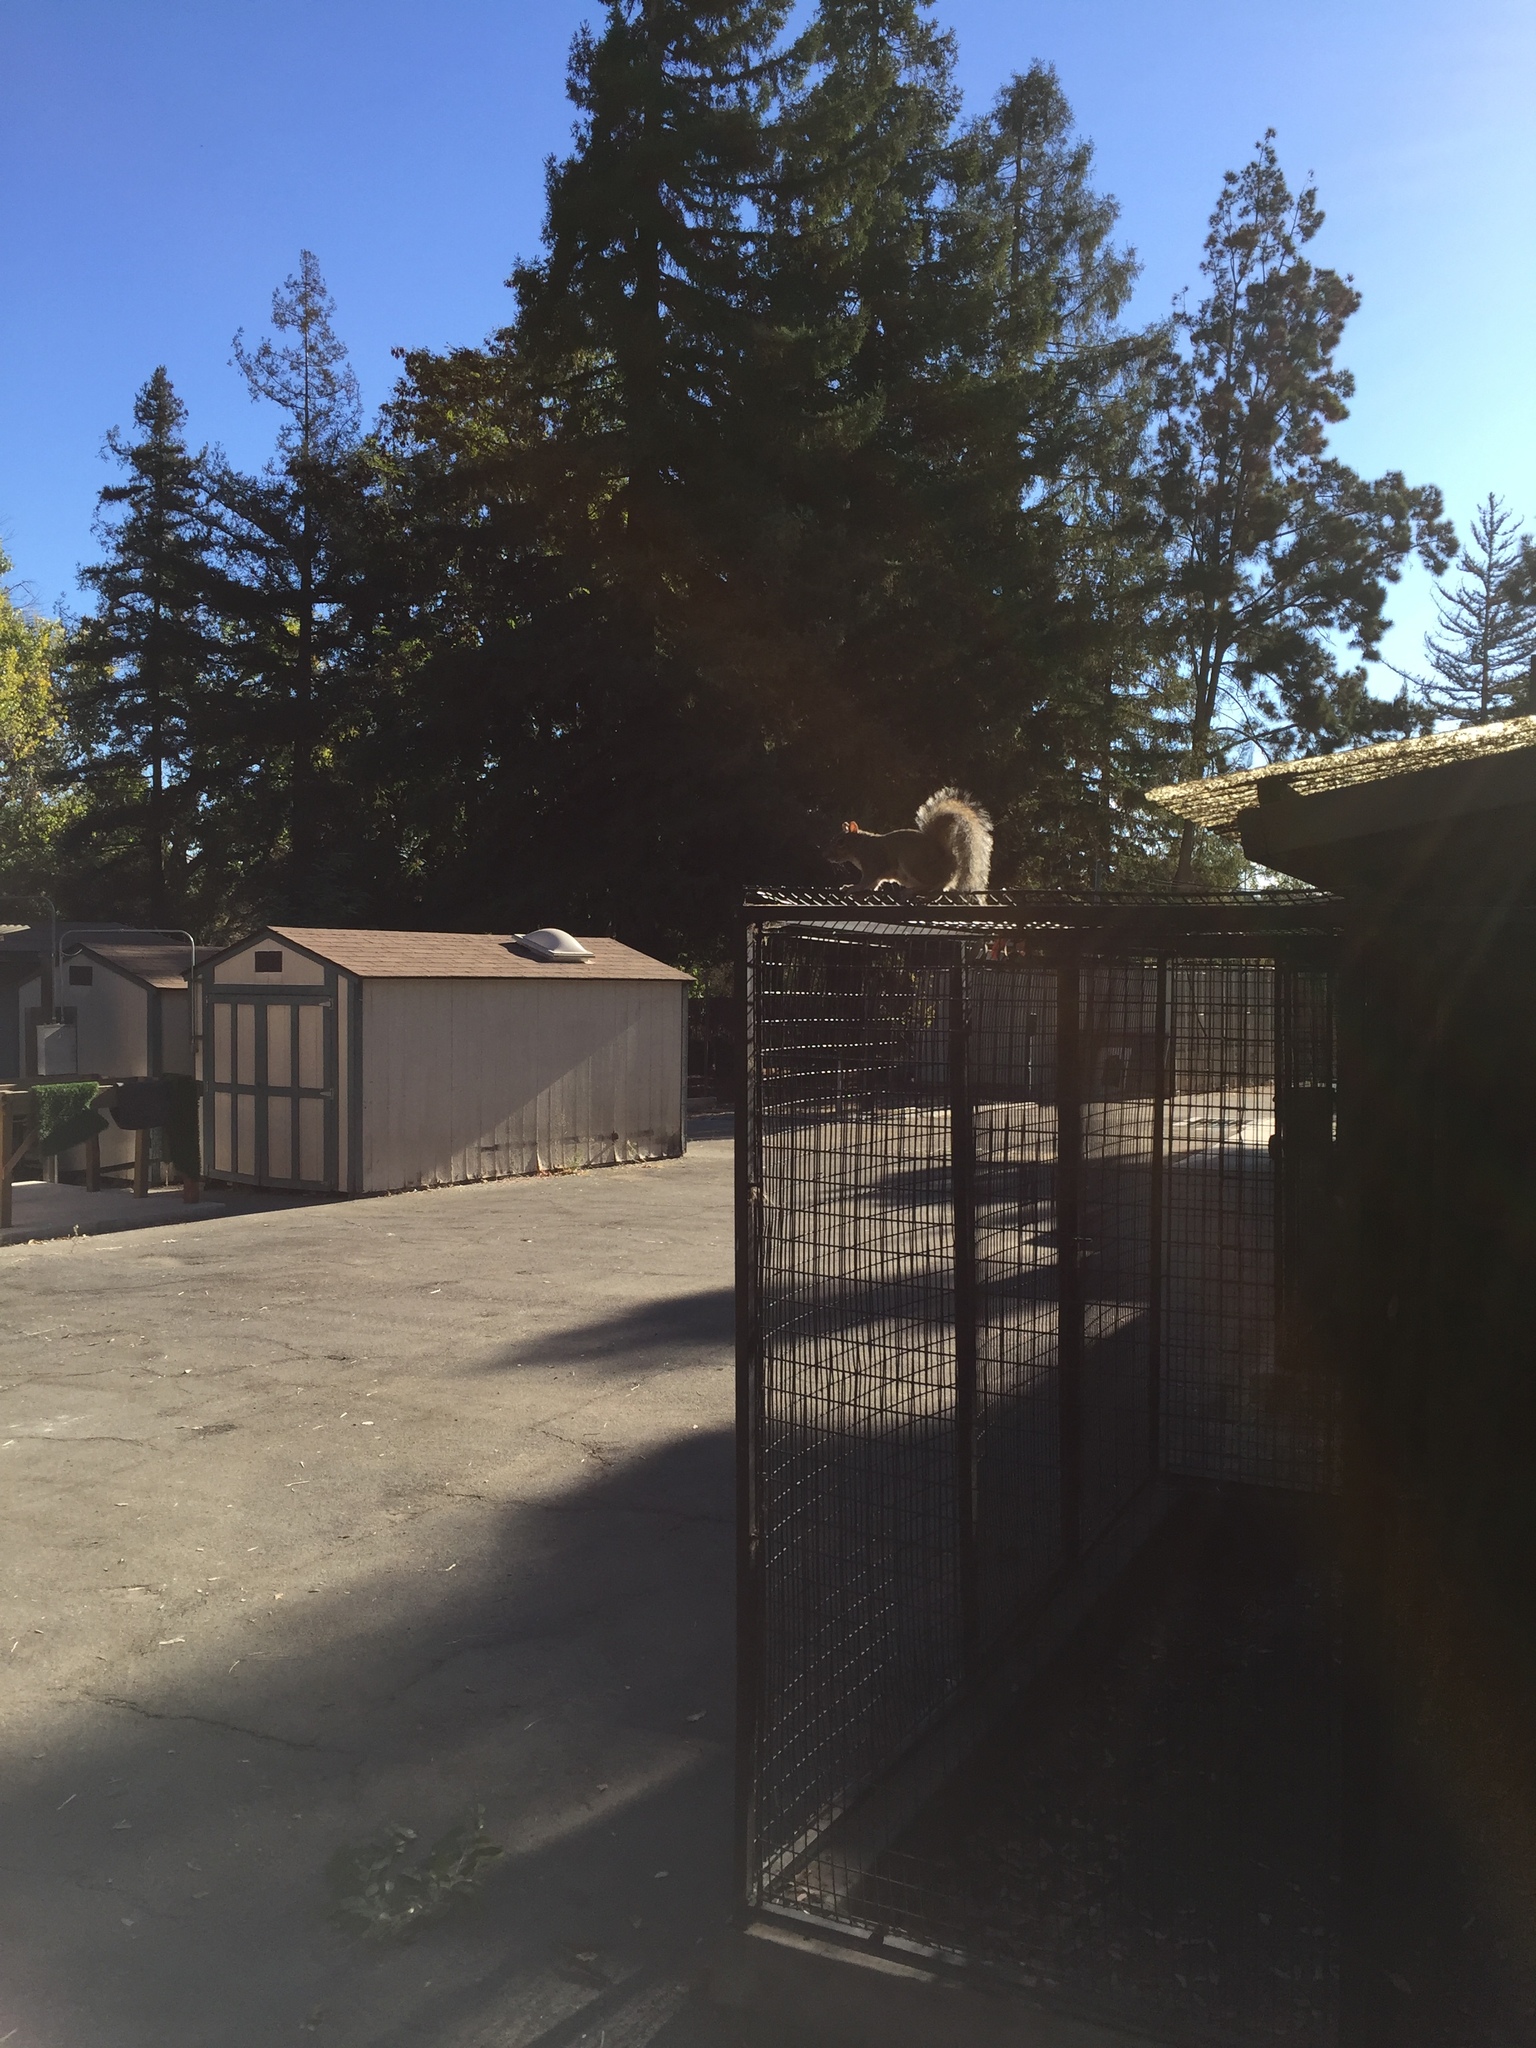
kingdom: Animalia
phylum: Chordata
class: Mammalia
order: Rodentia
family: Sciuridae
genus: Sciurus
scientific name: Sciurus carolinensis
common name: Eastern gray squirrel
